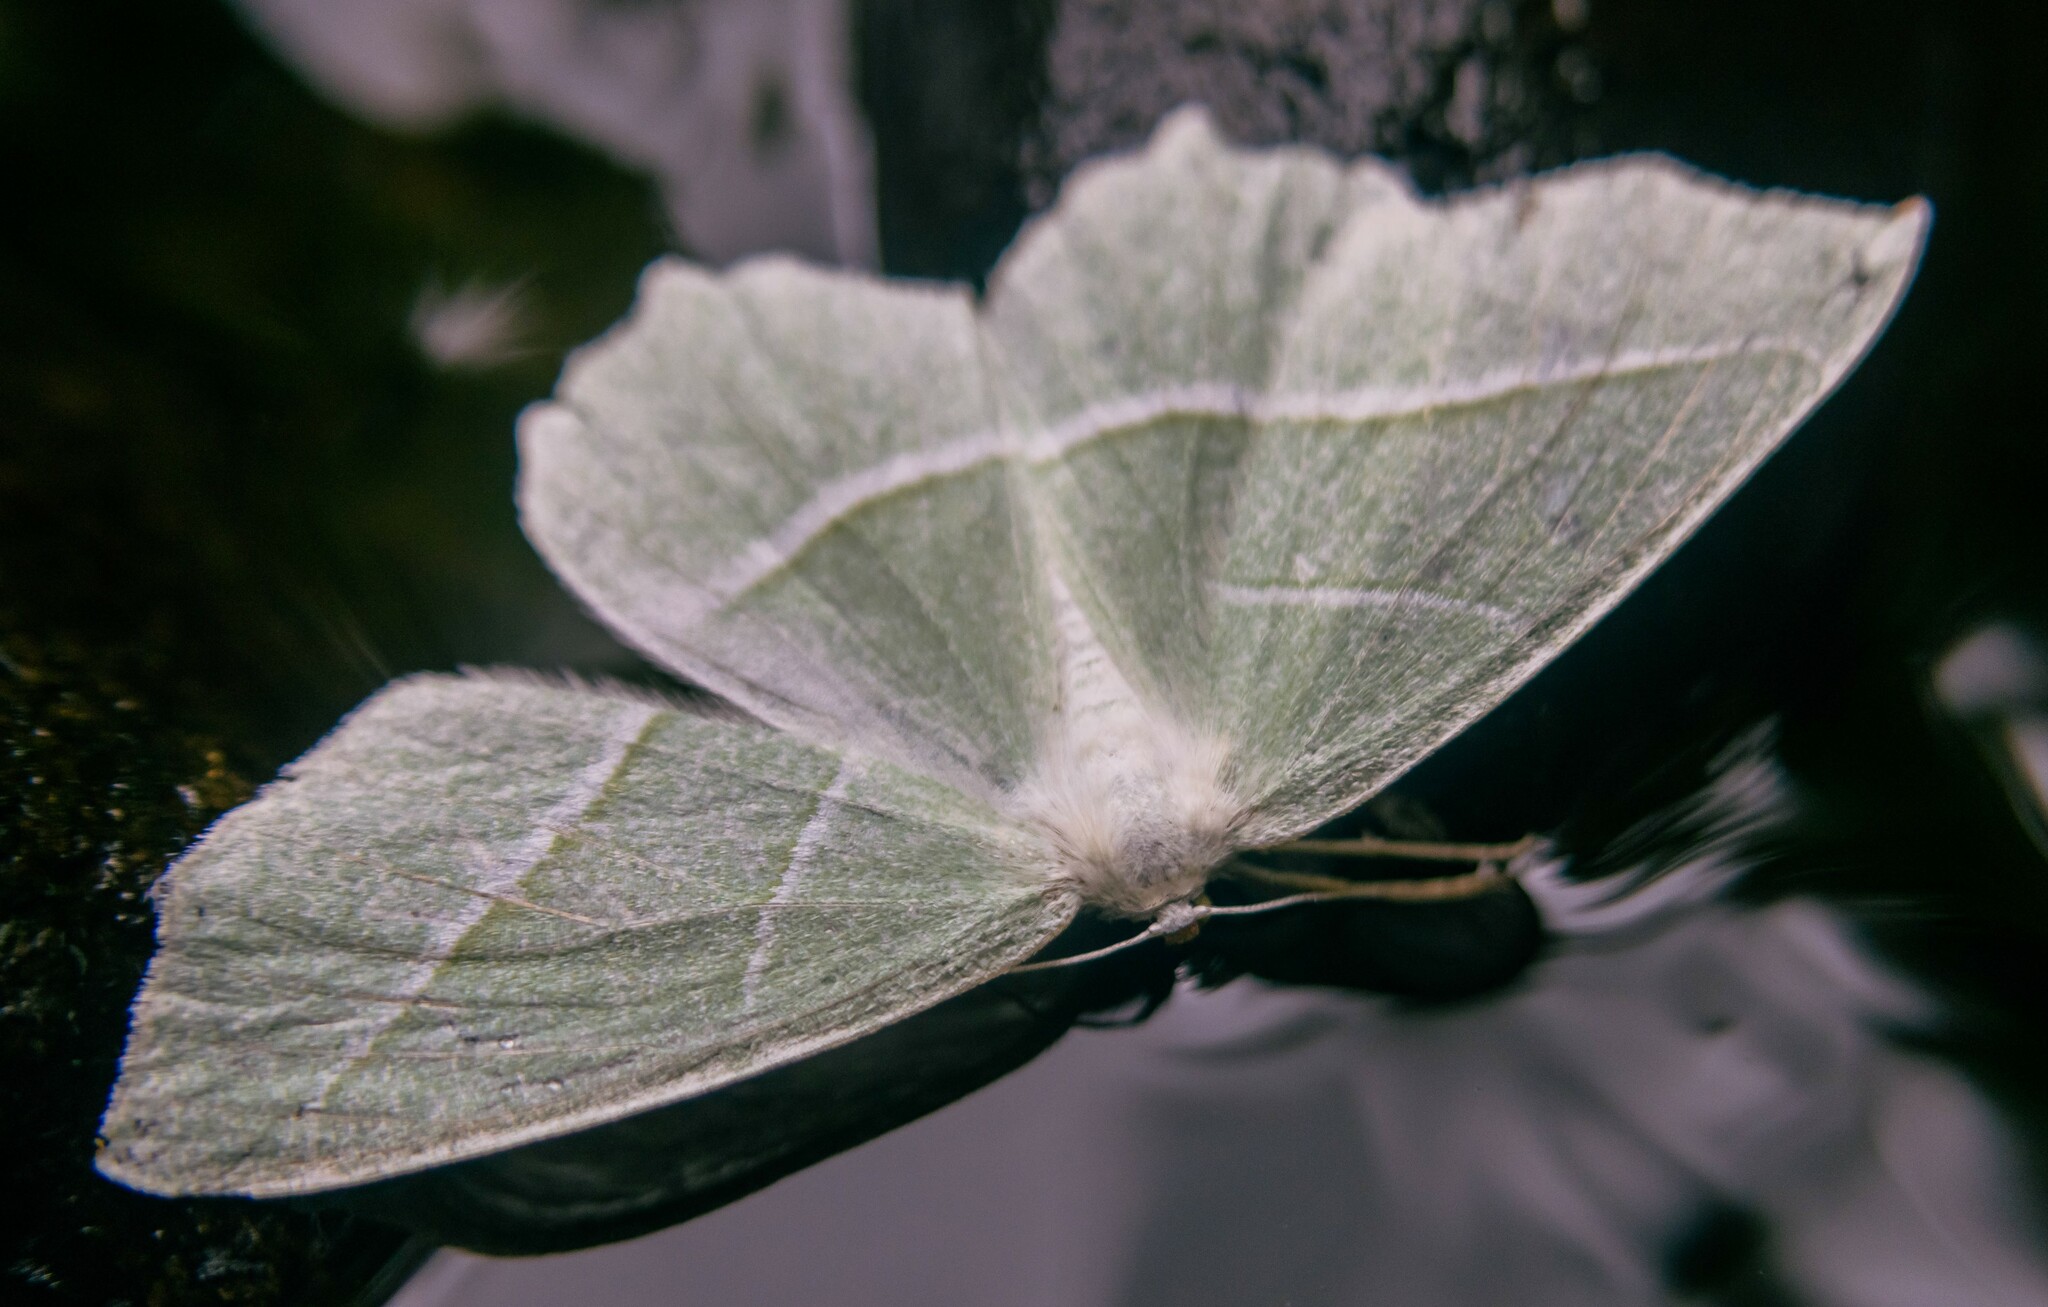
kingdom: Animalia
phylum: Arthropoda
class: Insecta
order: Lepidoptera
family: Geometridae
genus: Campaea
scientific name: Campaea margaritaria
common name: Light emerald
